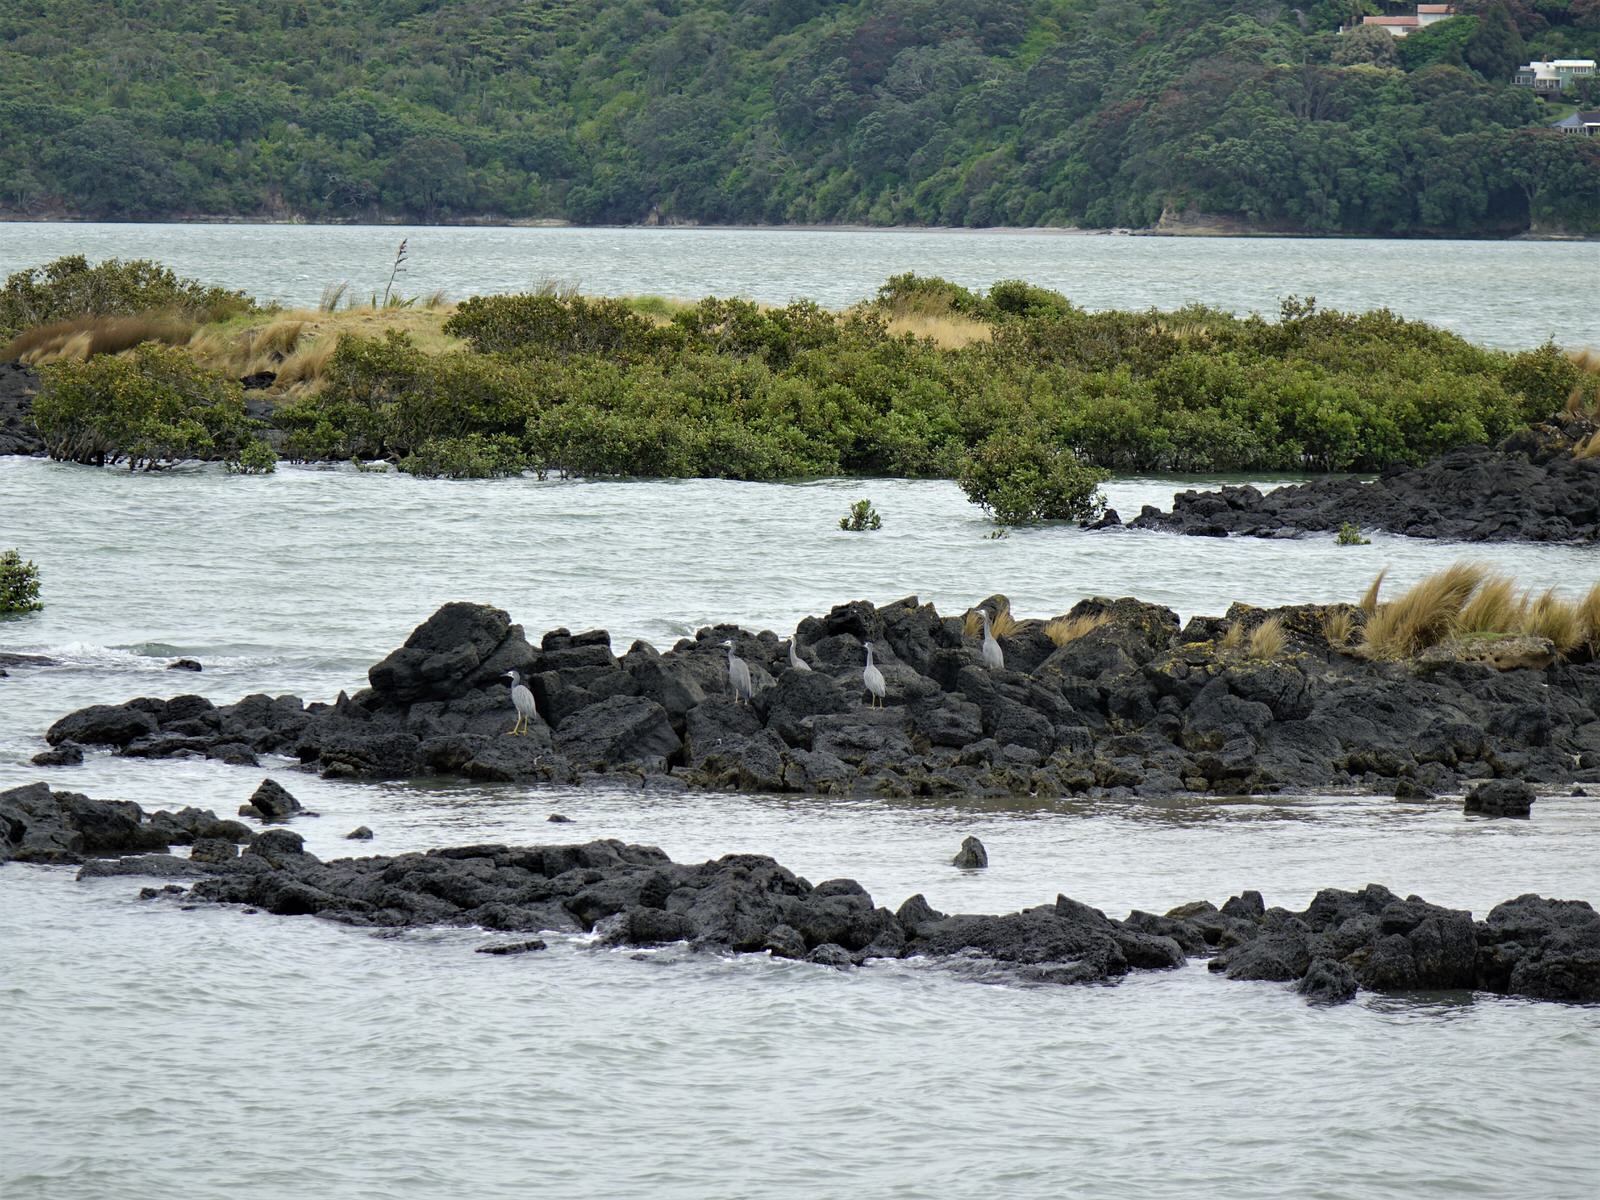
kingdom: Animalia
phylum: Chordata
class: Aves
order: Pelecaniformes
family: Ardeidae
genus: Egretta
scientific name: Egretta novaehollandiae
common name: White-faced heron
